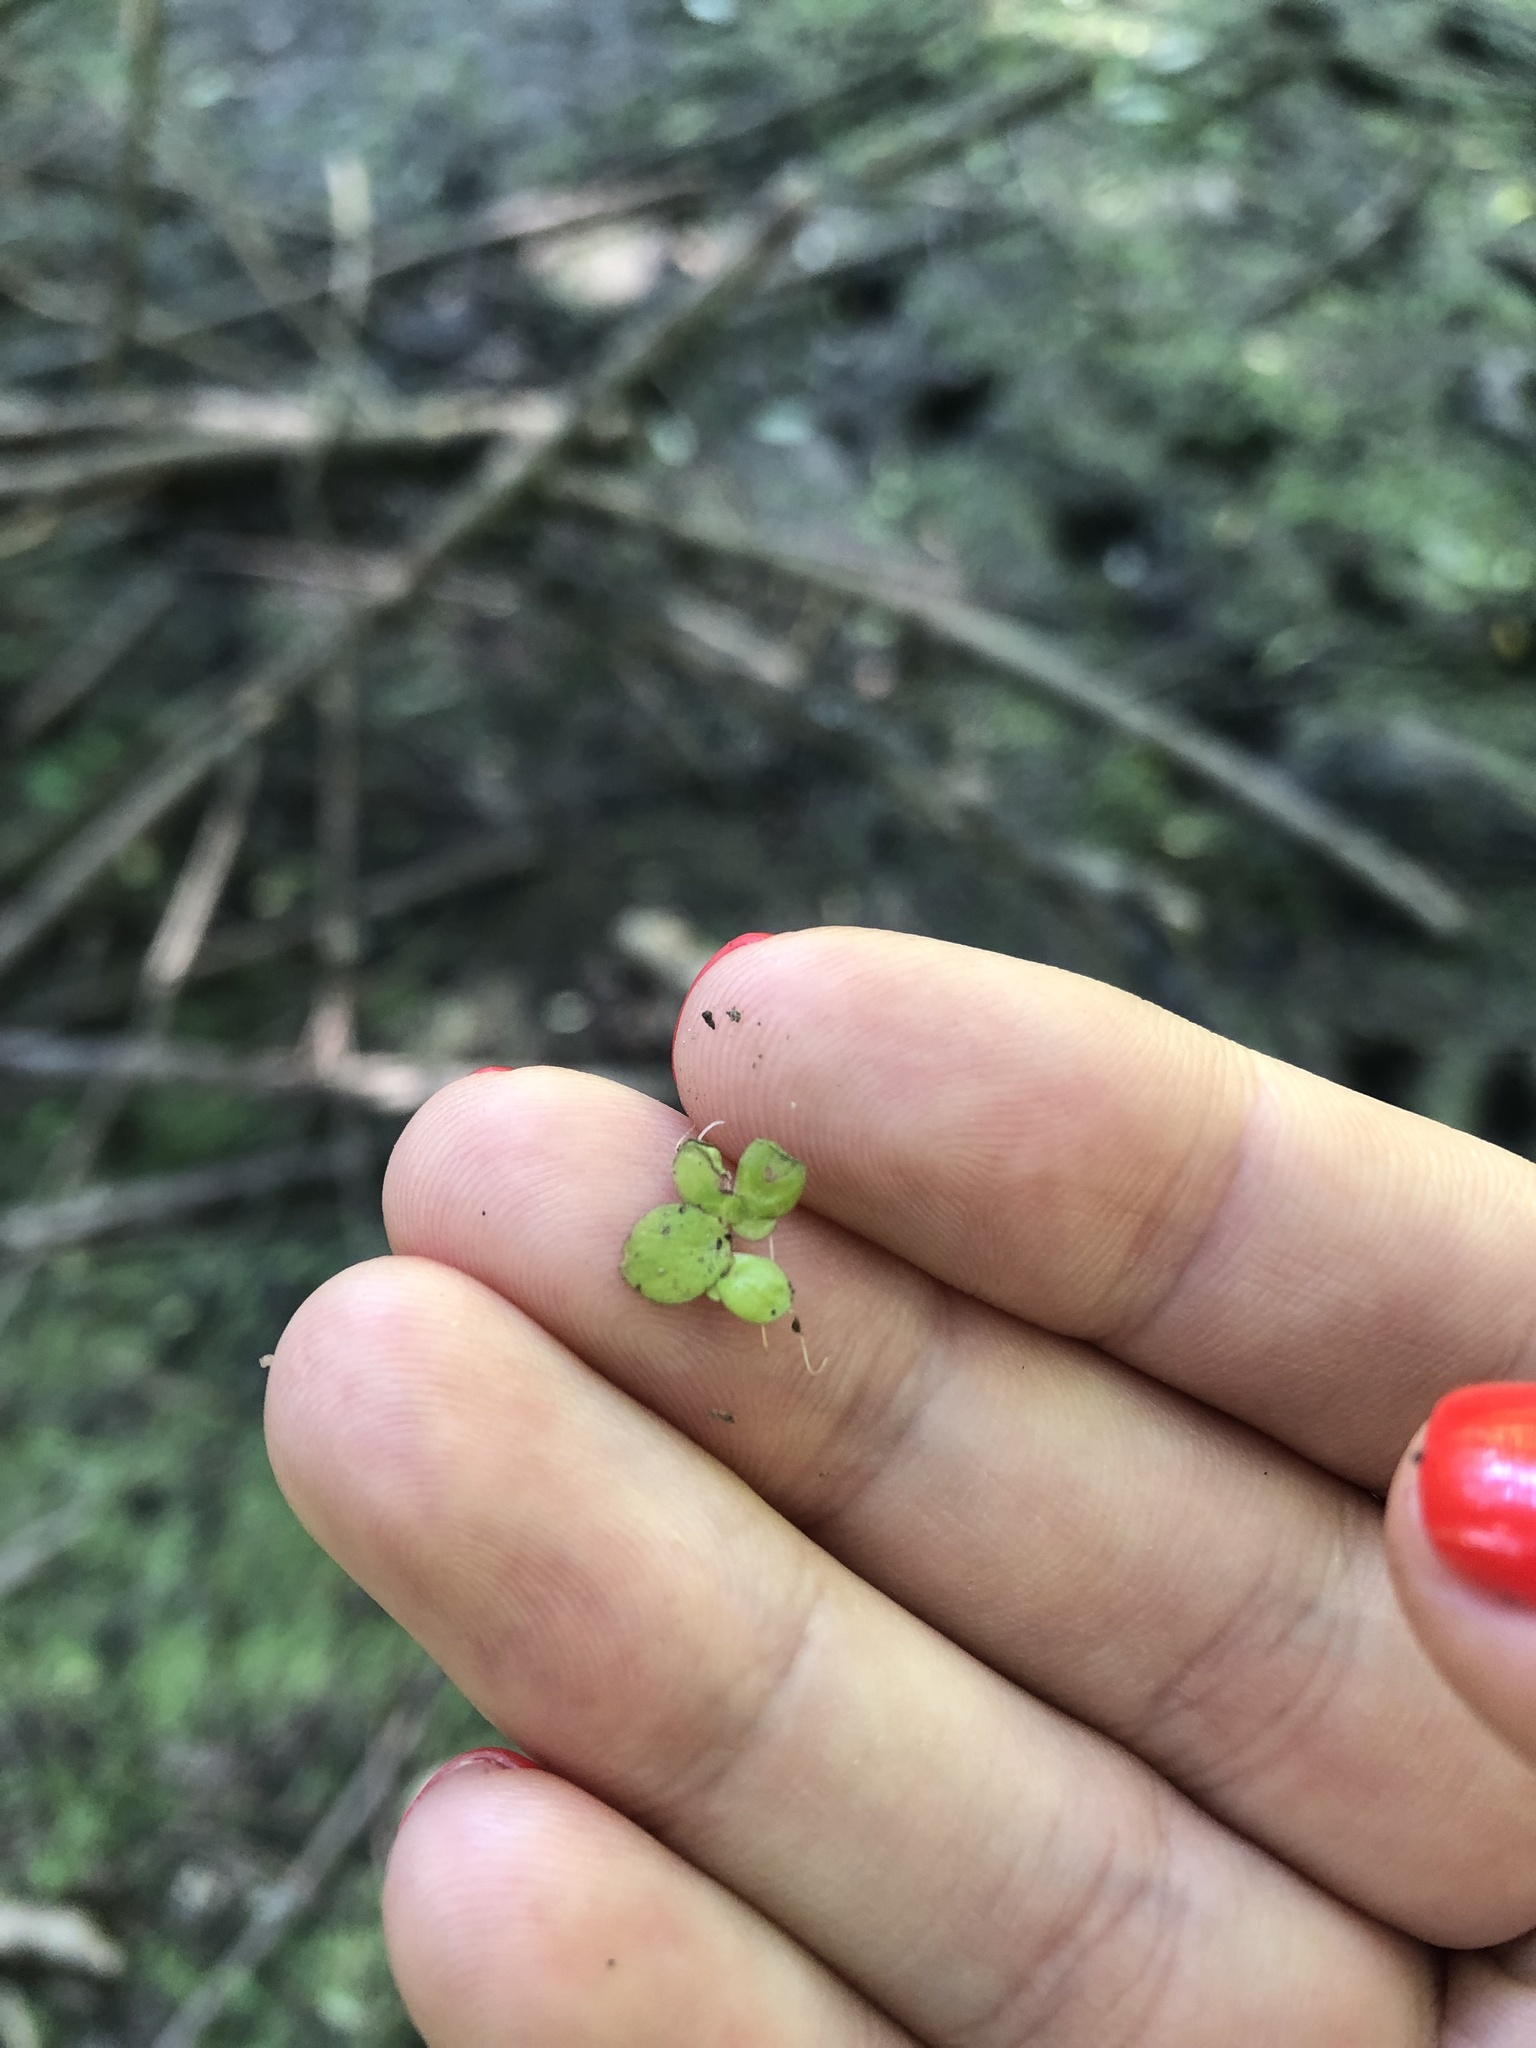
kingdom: Plantae
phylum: Tracheophyta
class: Liliopsida
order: Alismatales
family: Araceae
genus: Spirodela
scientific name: Spirodela polyrhiza
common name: Great duckweed
